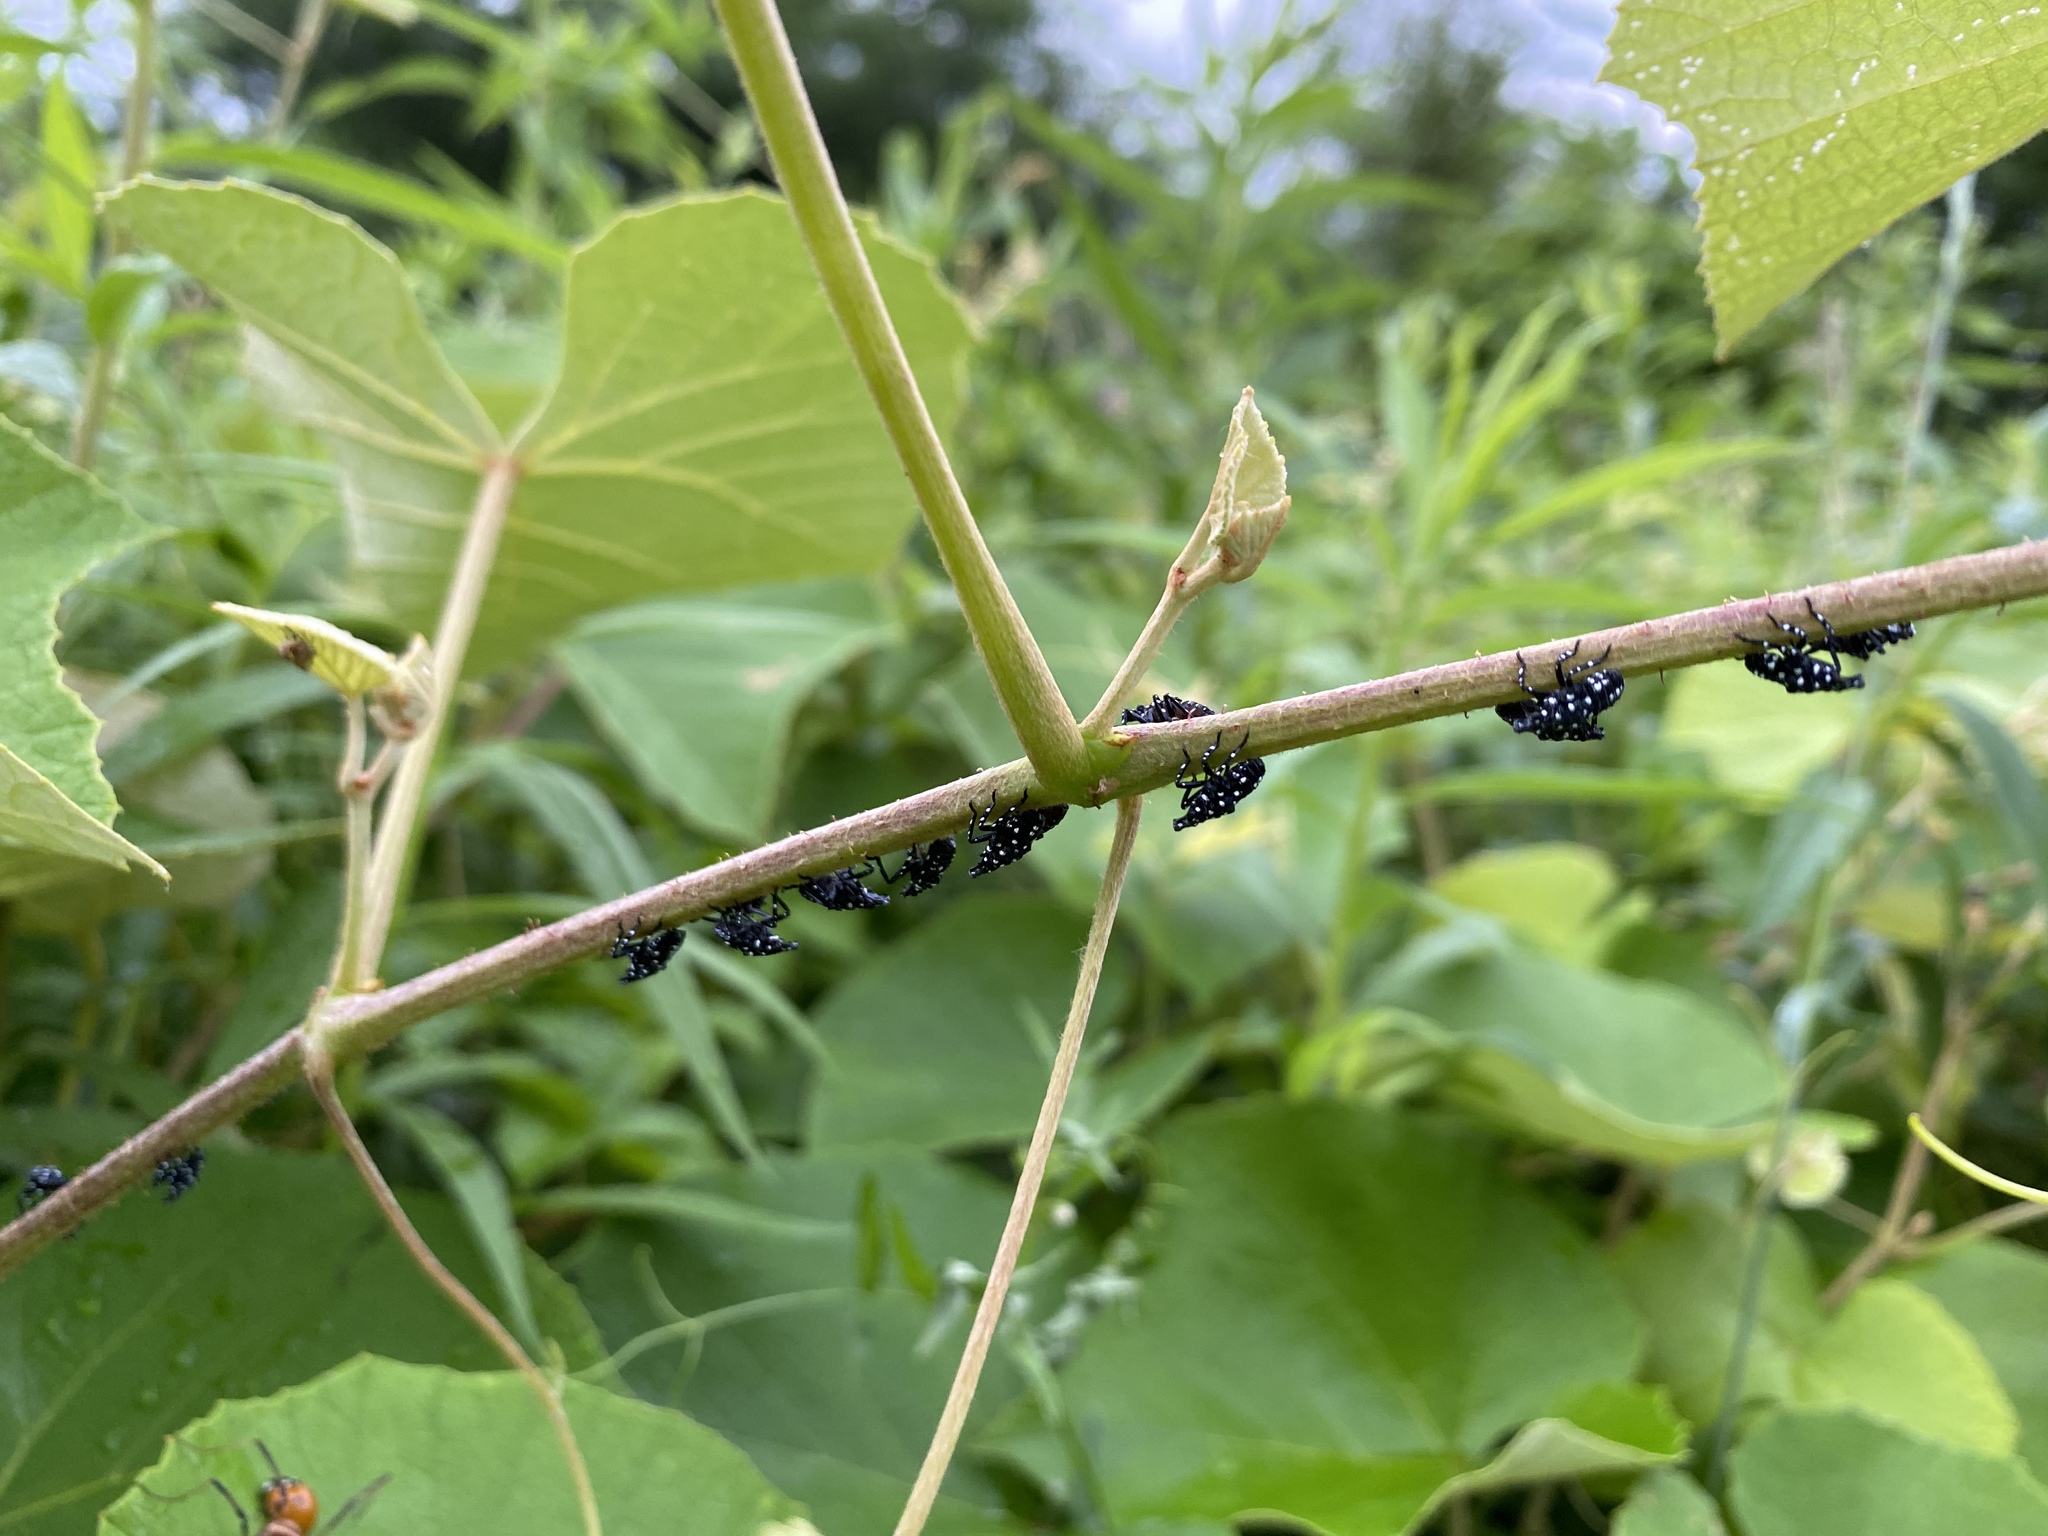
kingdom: Animalia
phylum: Arthropoda
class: Insecta
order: Hemiptera
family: Fulgoridae
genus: Lycorma
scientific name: Lycorma delicatula
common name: Spotted lanternfly
